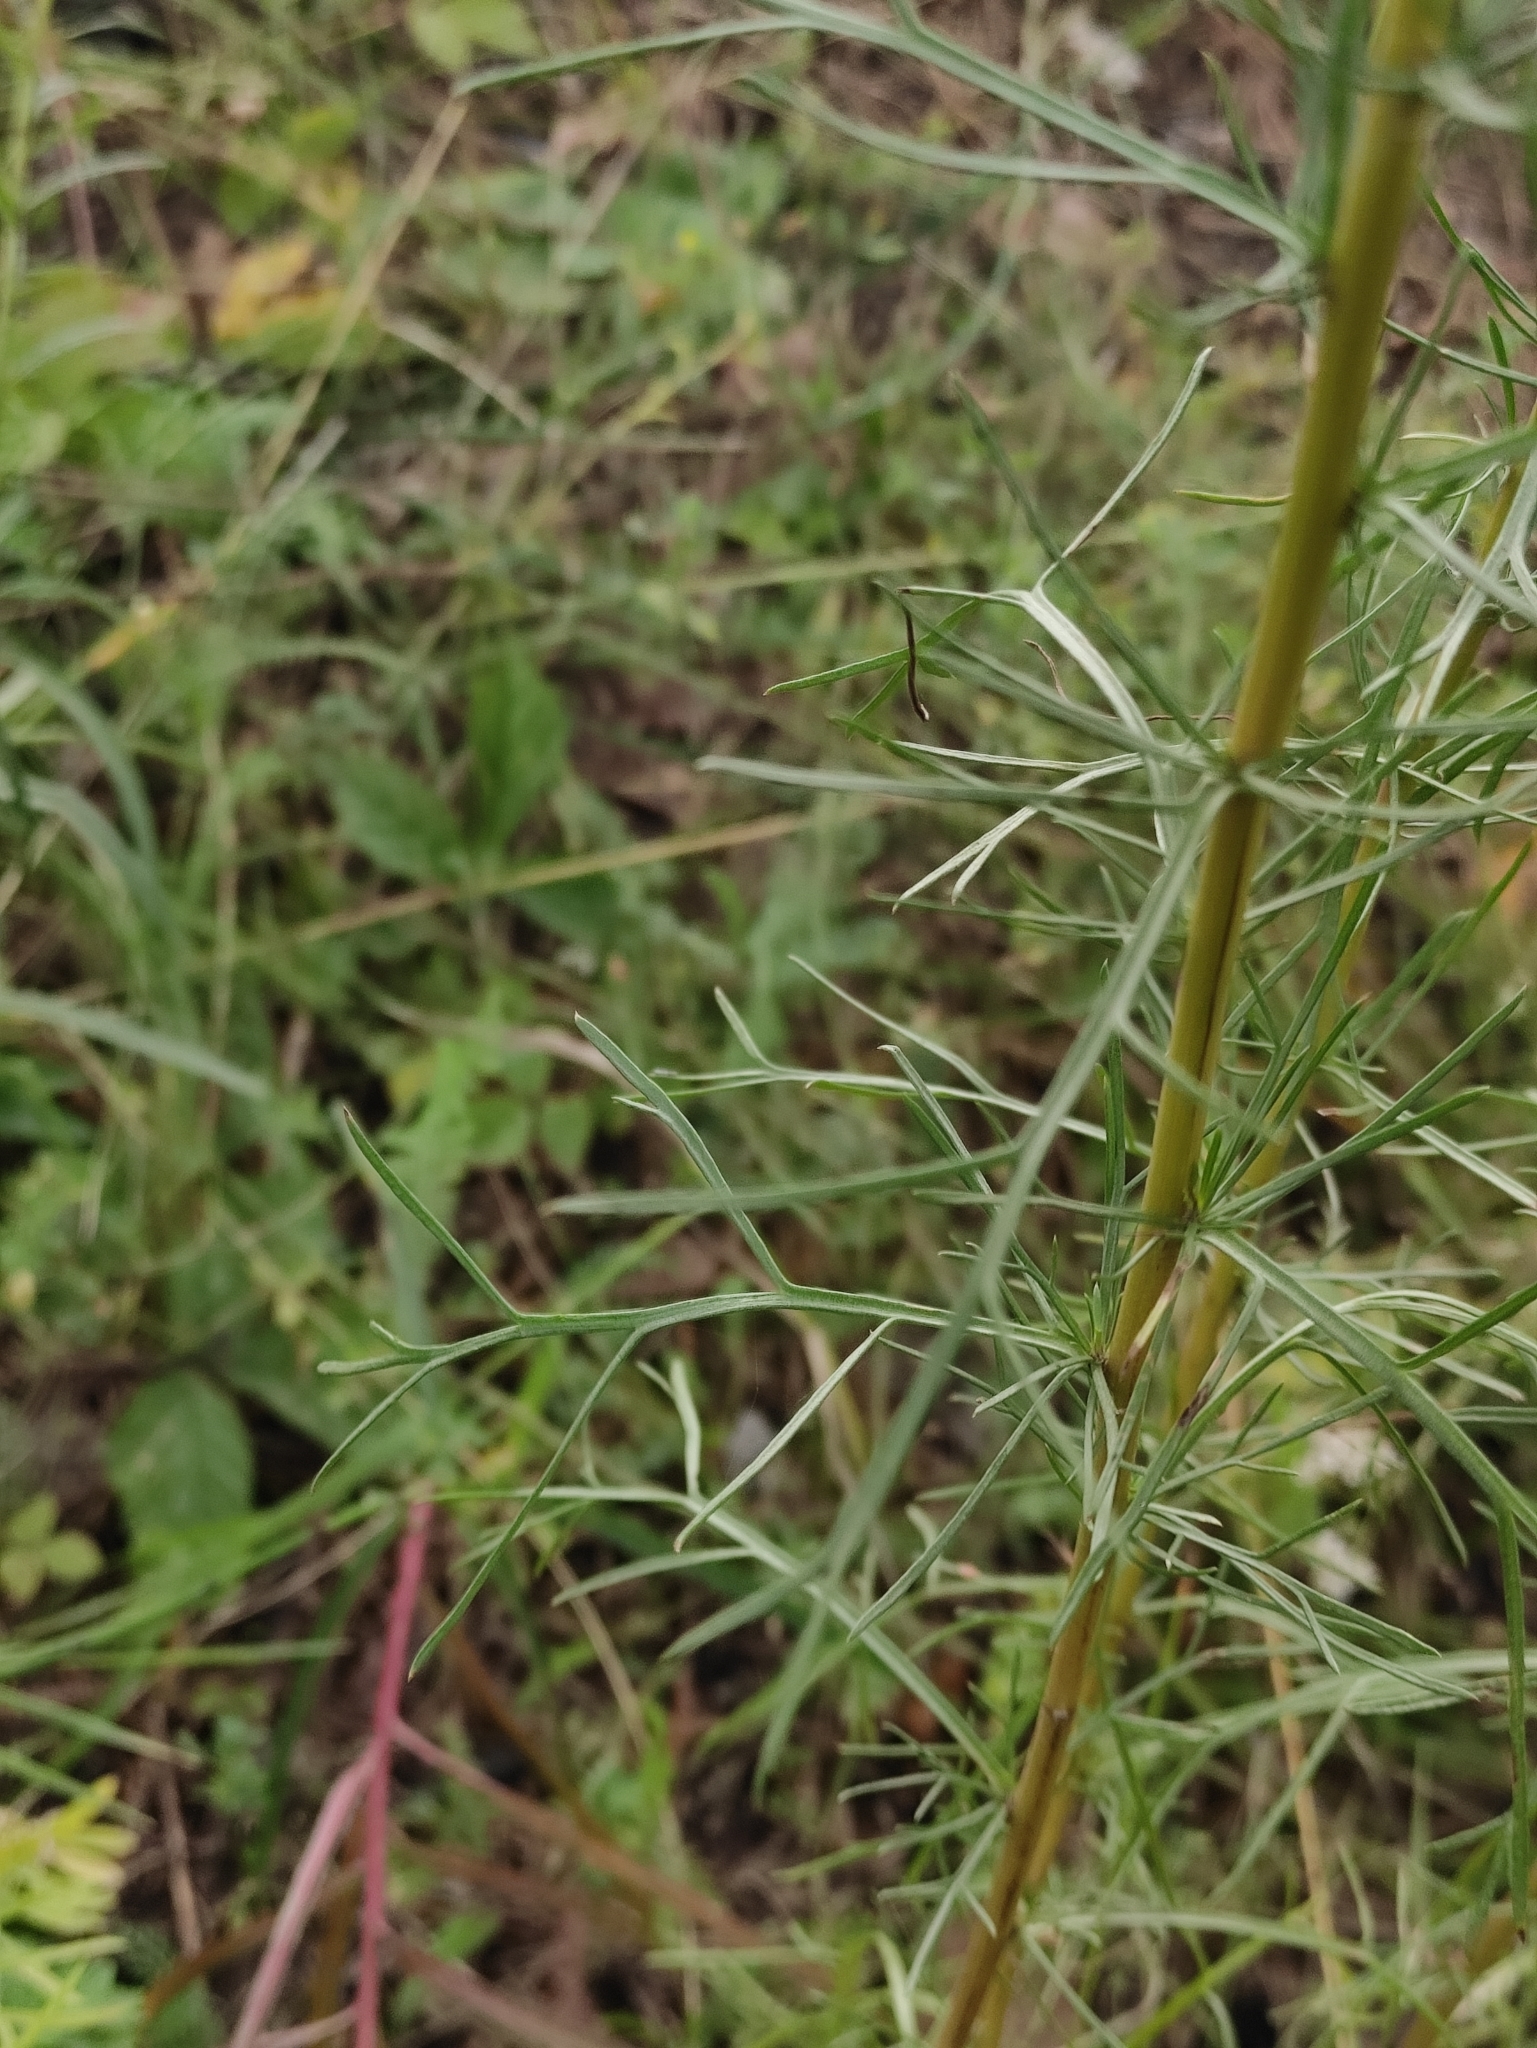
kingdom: Plantae
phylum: Tracheophyta
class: Magnoliopsida
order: Asterales
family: Asteraceae
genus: Artemisia
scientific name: Artemisia pubescens
